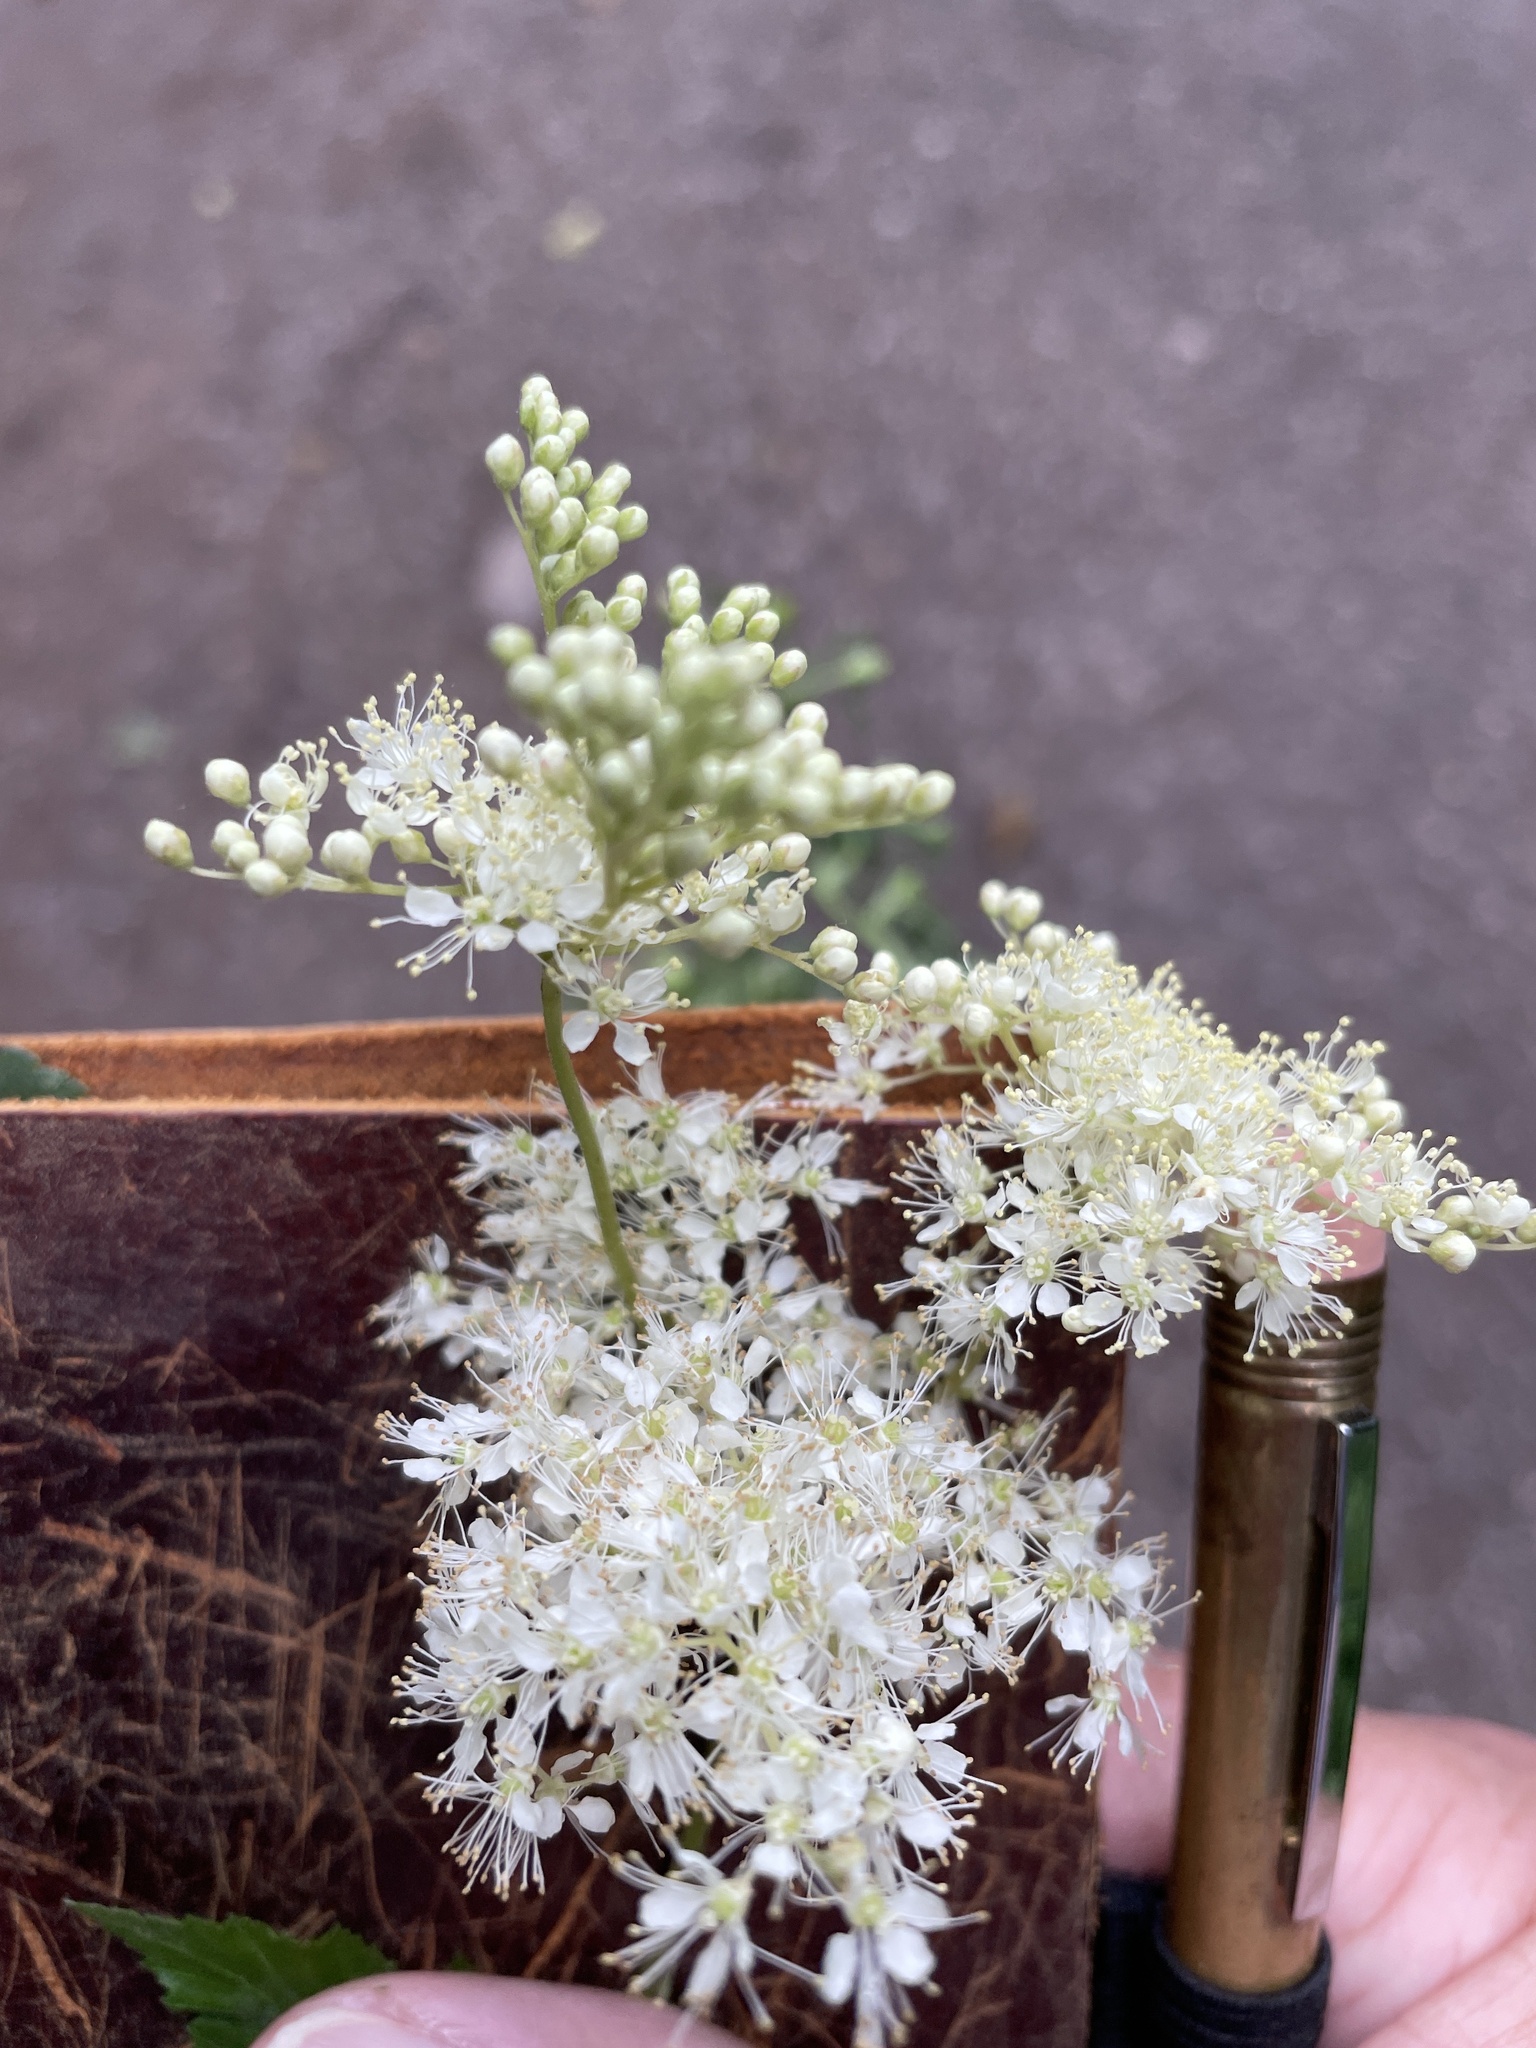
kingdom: Plantae
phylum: Tracheophyta
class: Magnoliopsida
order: Rosales
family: Rosaceae
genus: Filipendula
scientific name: Filipendula ulmaria
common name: Meadowsweet
